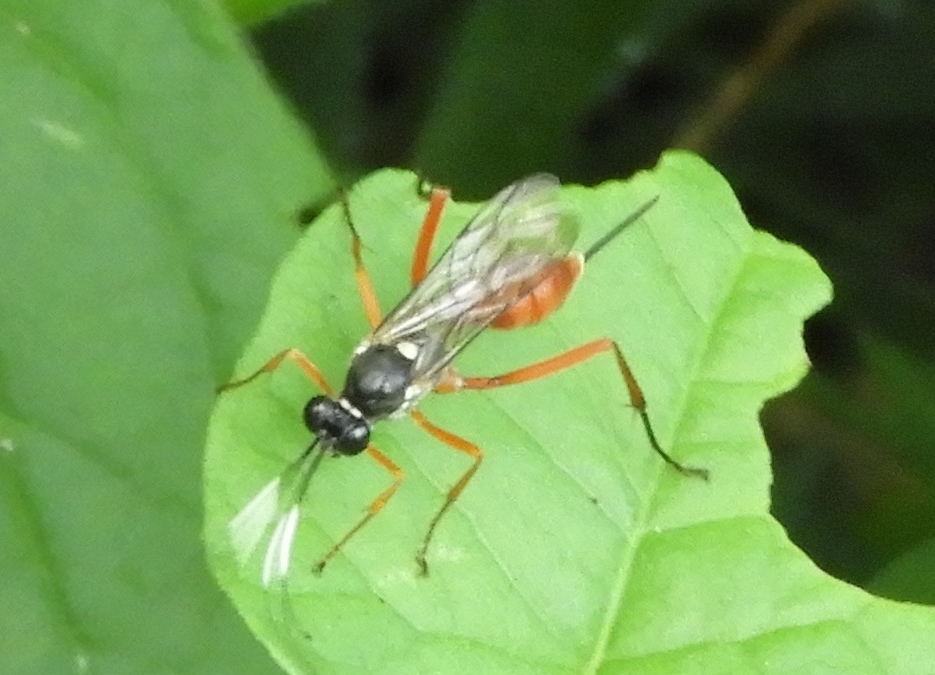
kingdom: Animalia
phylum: Arthropoda
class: Insecta
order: Hymenoptera
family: Ichneumonidae
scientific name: Ichneumonidae
